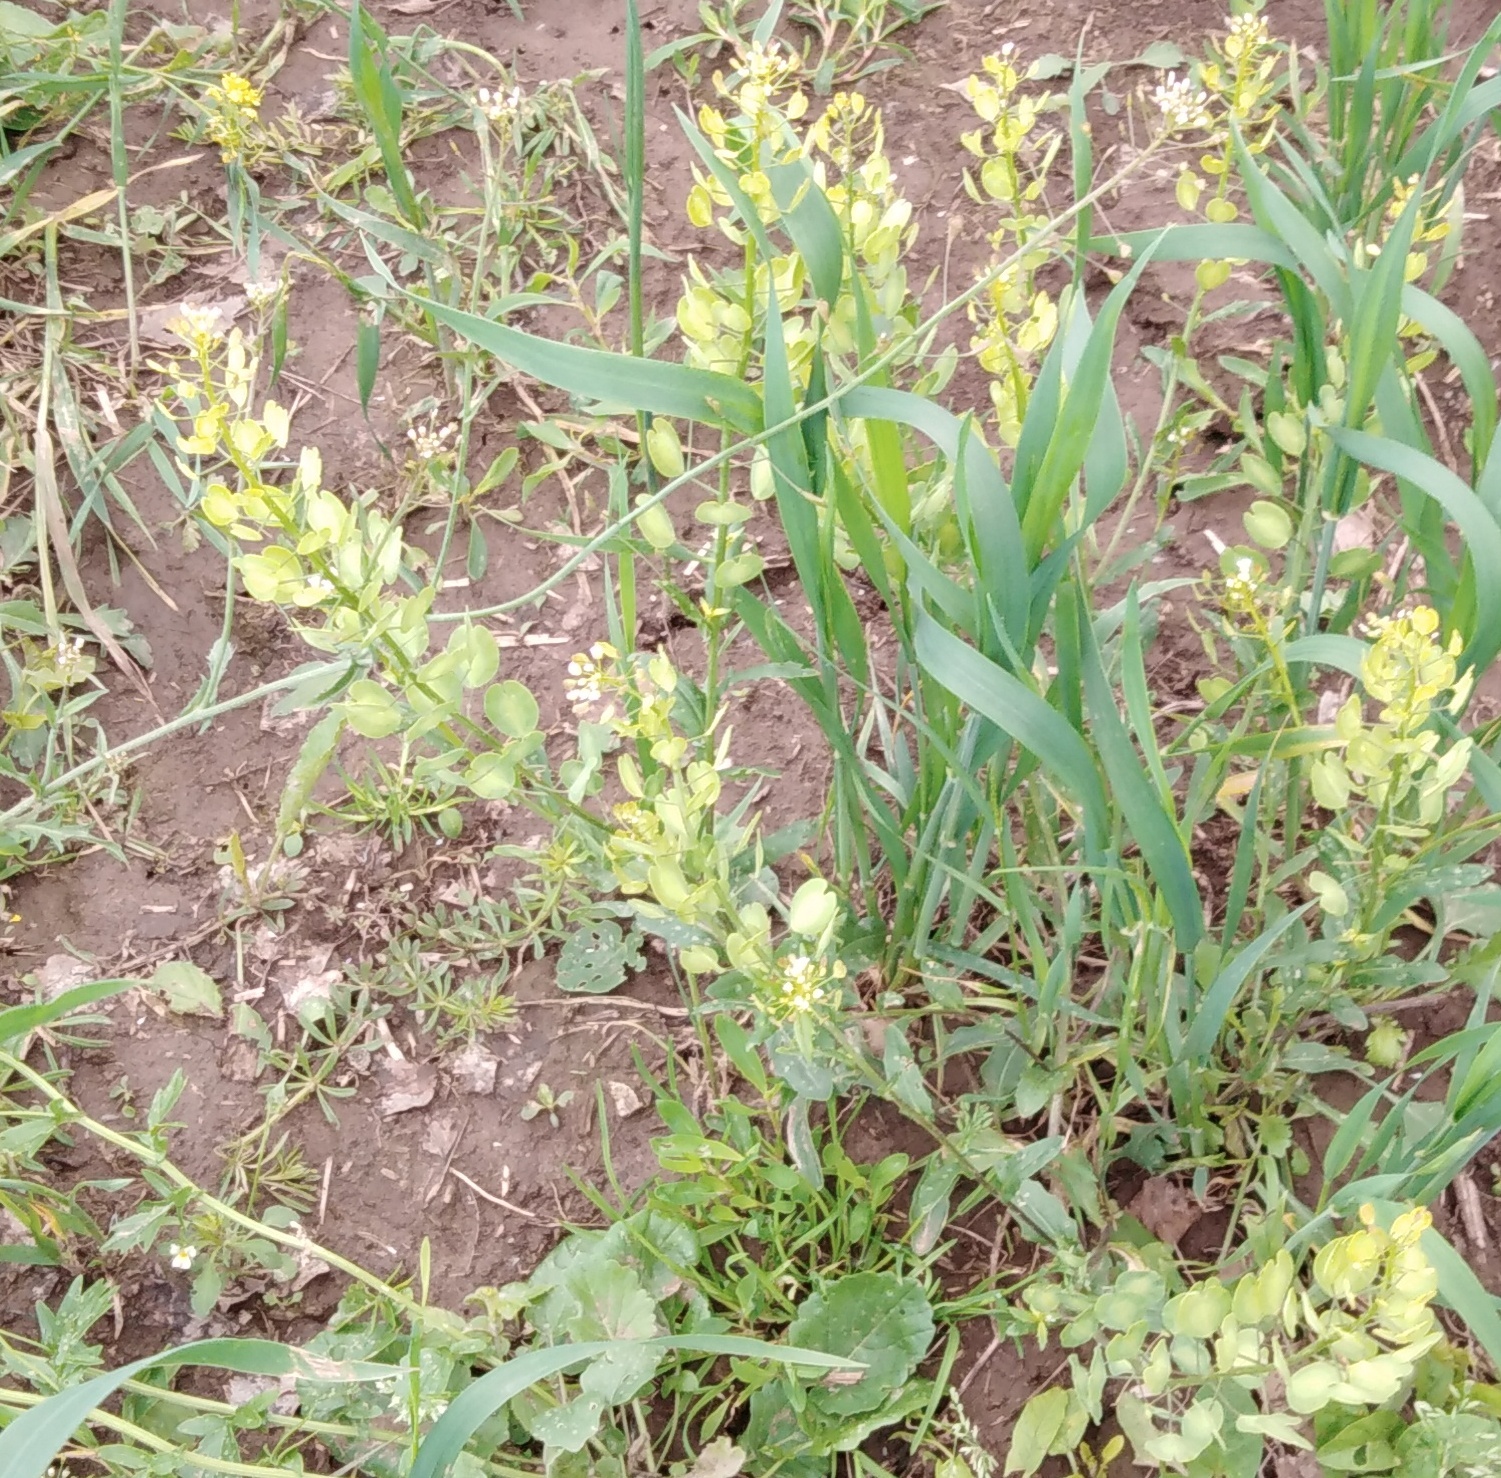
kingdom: Plantae
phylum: Tracheophyta
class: Magnoliopsida
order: Brassicales
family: Brassicaceae
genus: Thlaspi
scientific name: Thlaspi arvense
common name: Field pennycress
